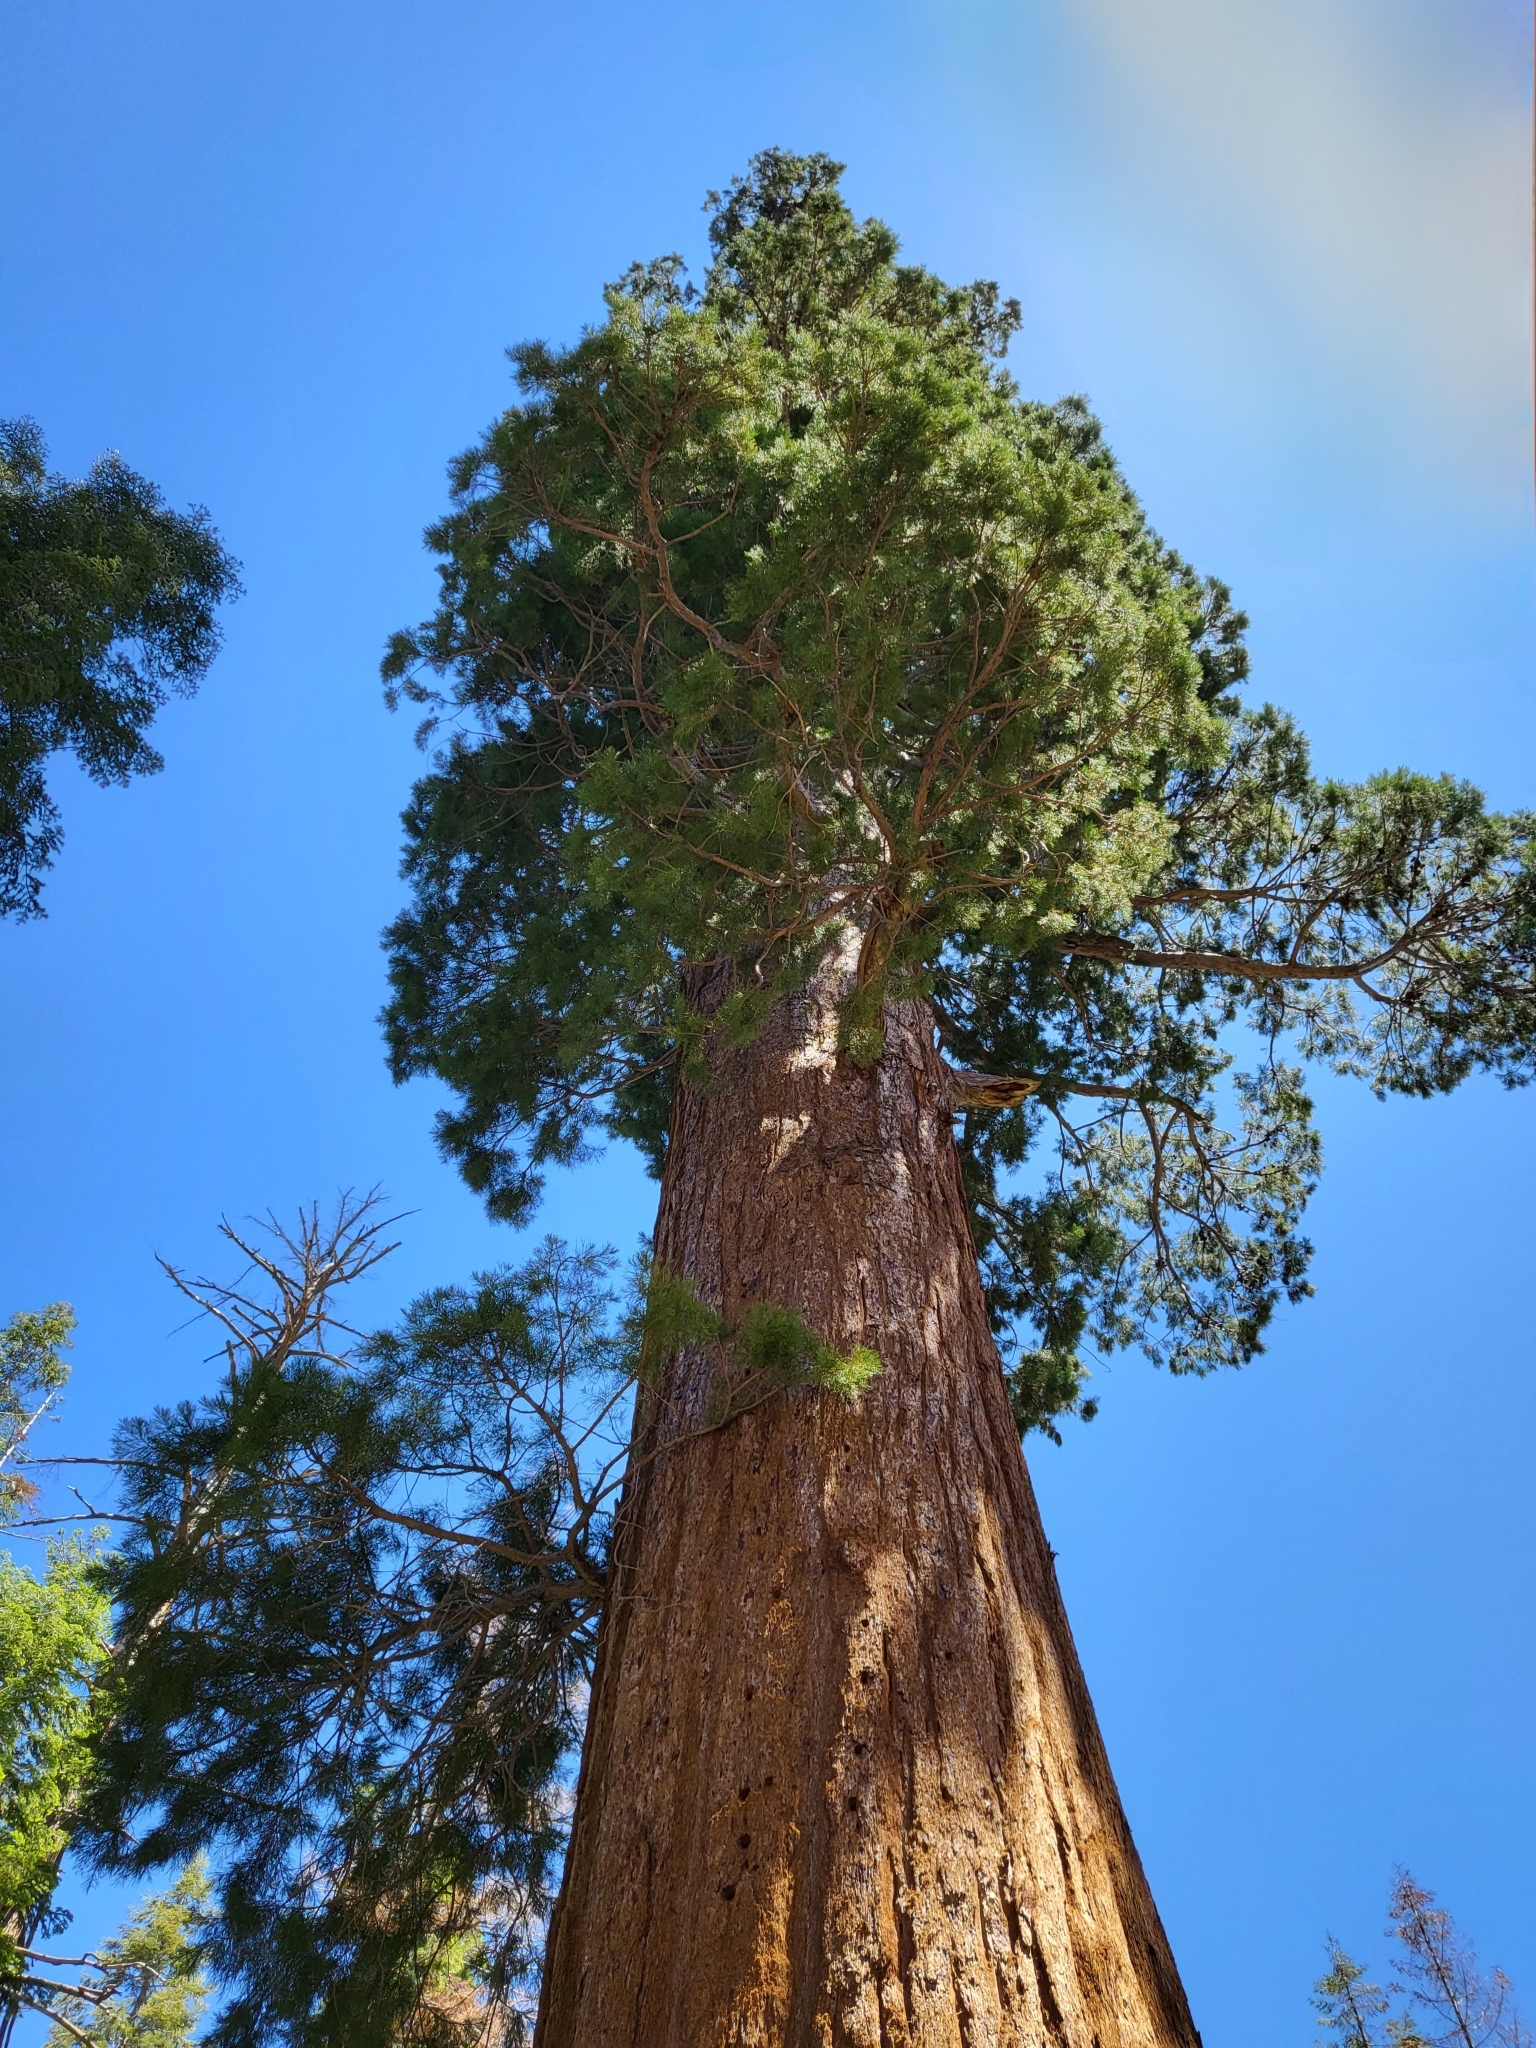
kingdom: Plantae
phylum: Tracheophyta
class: Pinopsida
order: Pinales
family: Cupressaceae
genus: Sequoiadendron
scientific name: Sequoiadendron giganteum
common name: Wellingtonia
